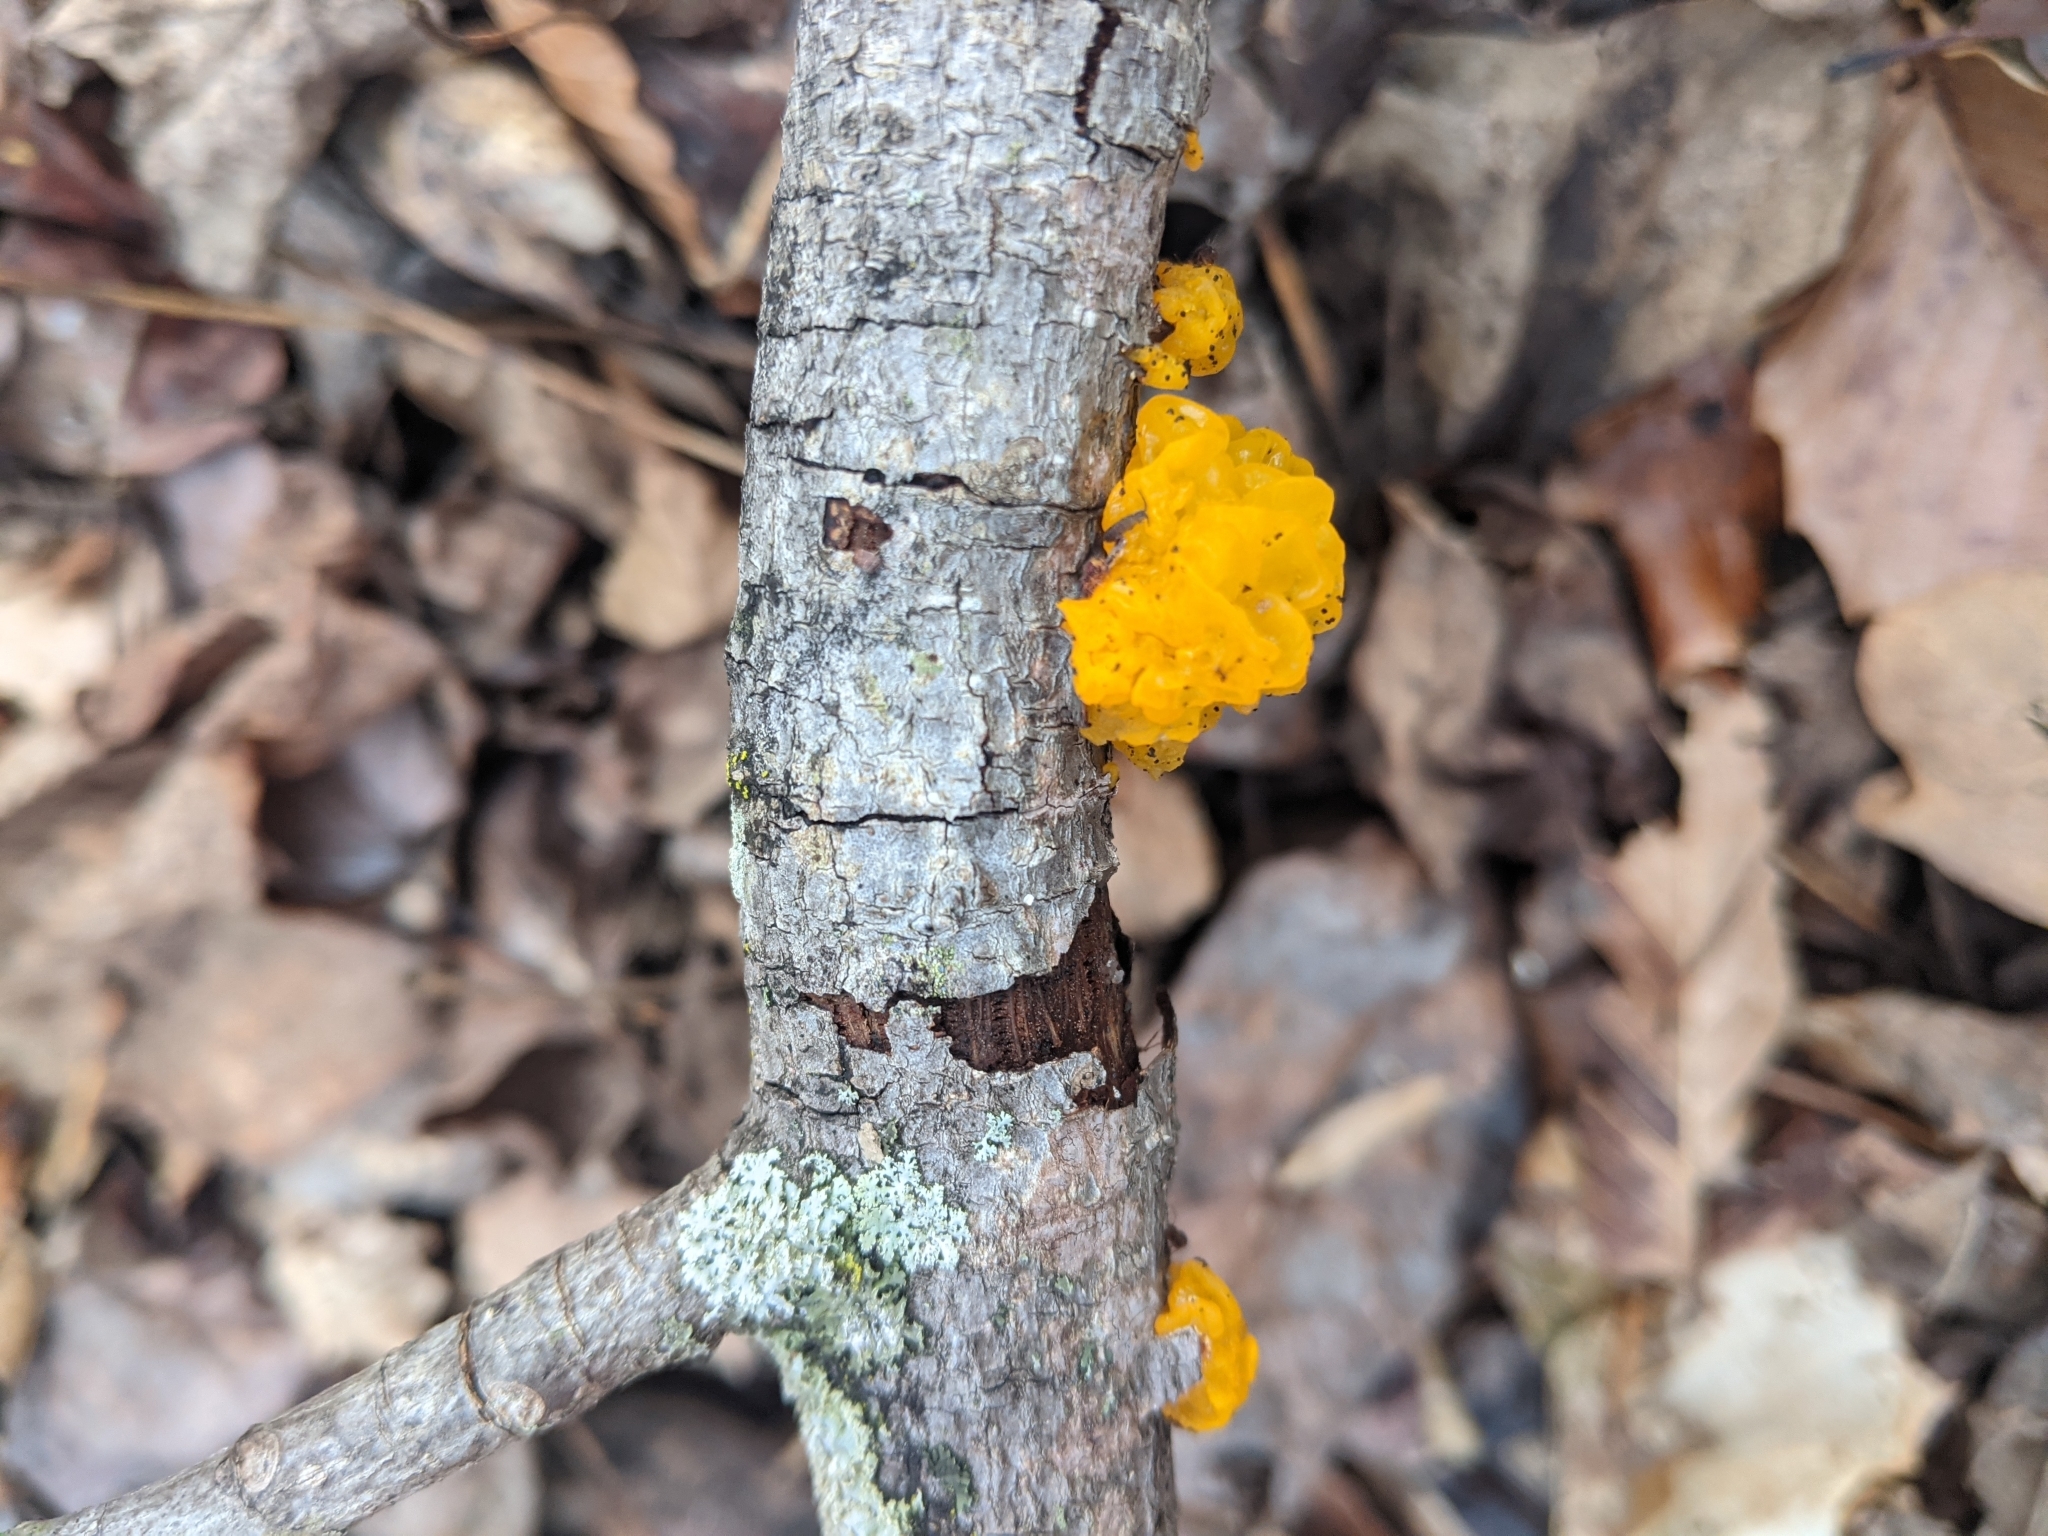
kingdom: Fungi
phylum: Basidiomycota
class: Tremellomycetes
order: Tremellales
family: Tremellaceae
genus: Tremella
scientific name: Tremella mesenterica
